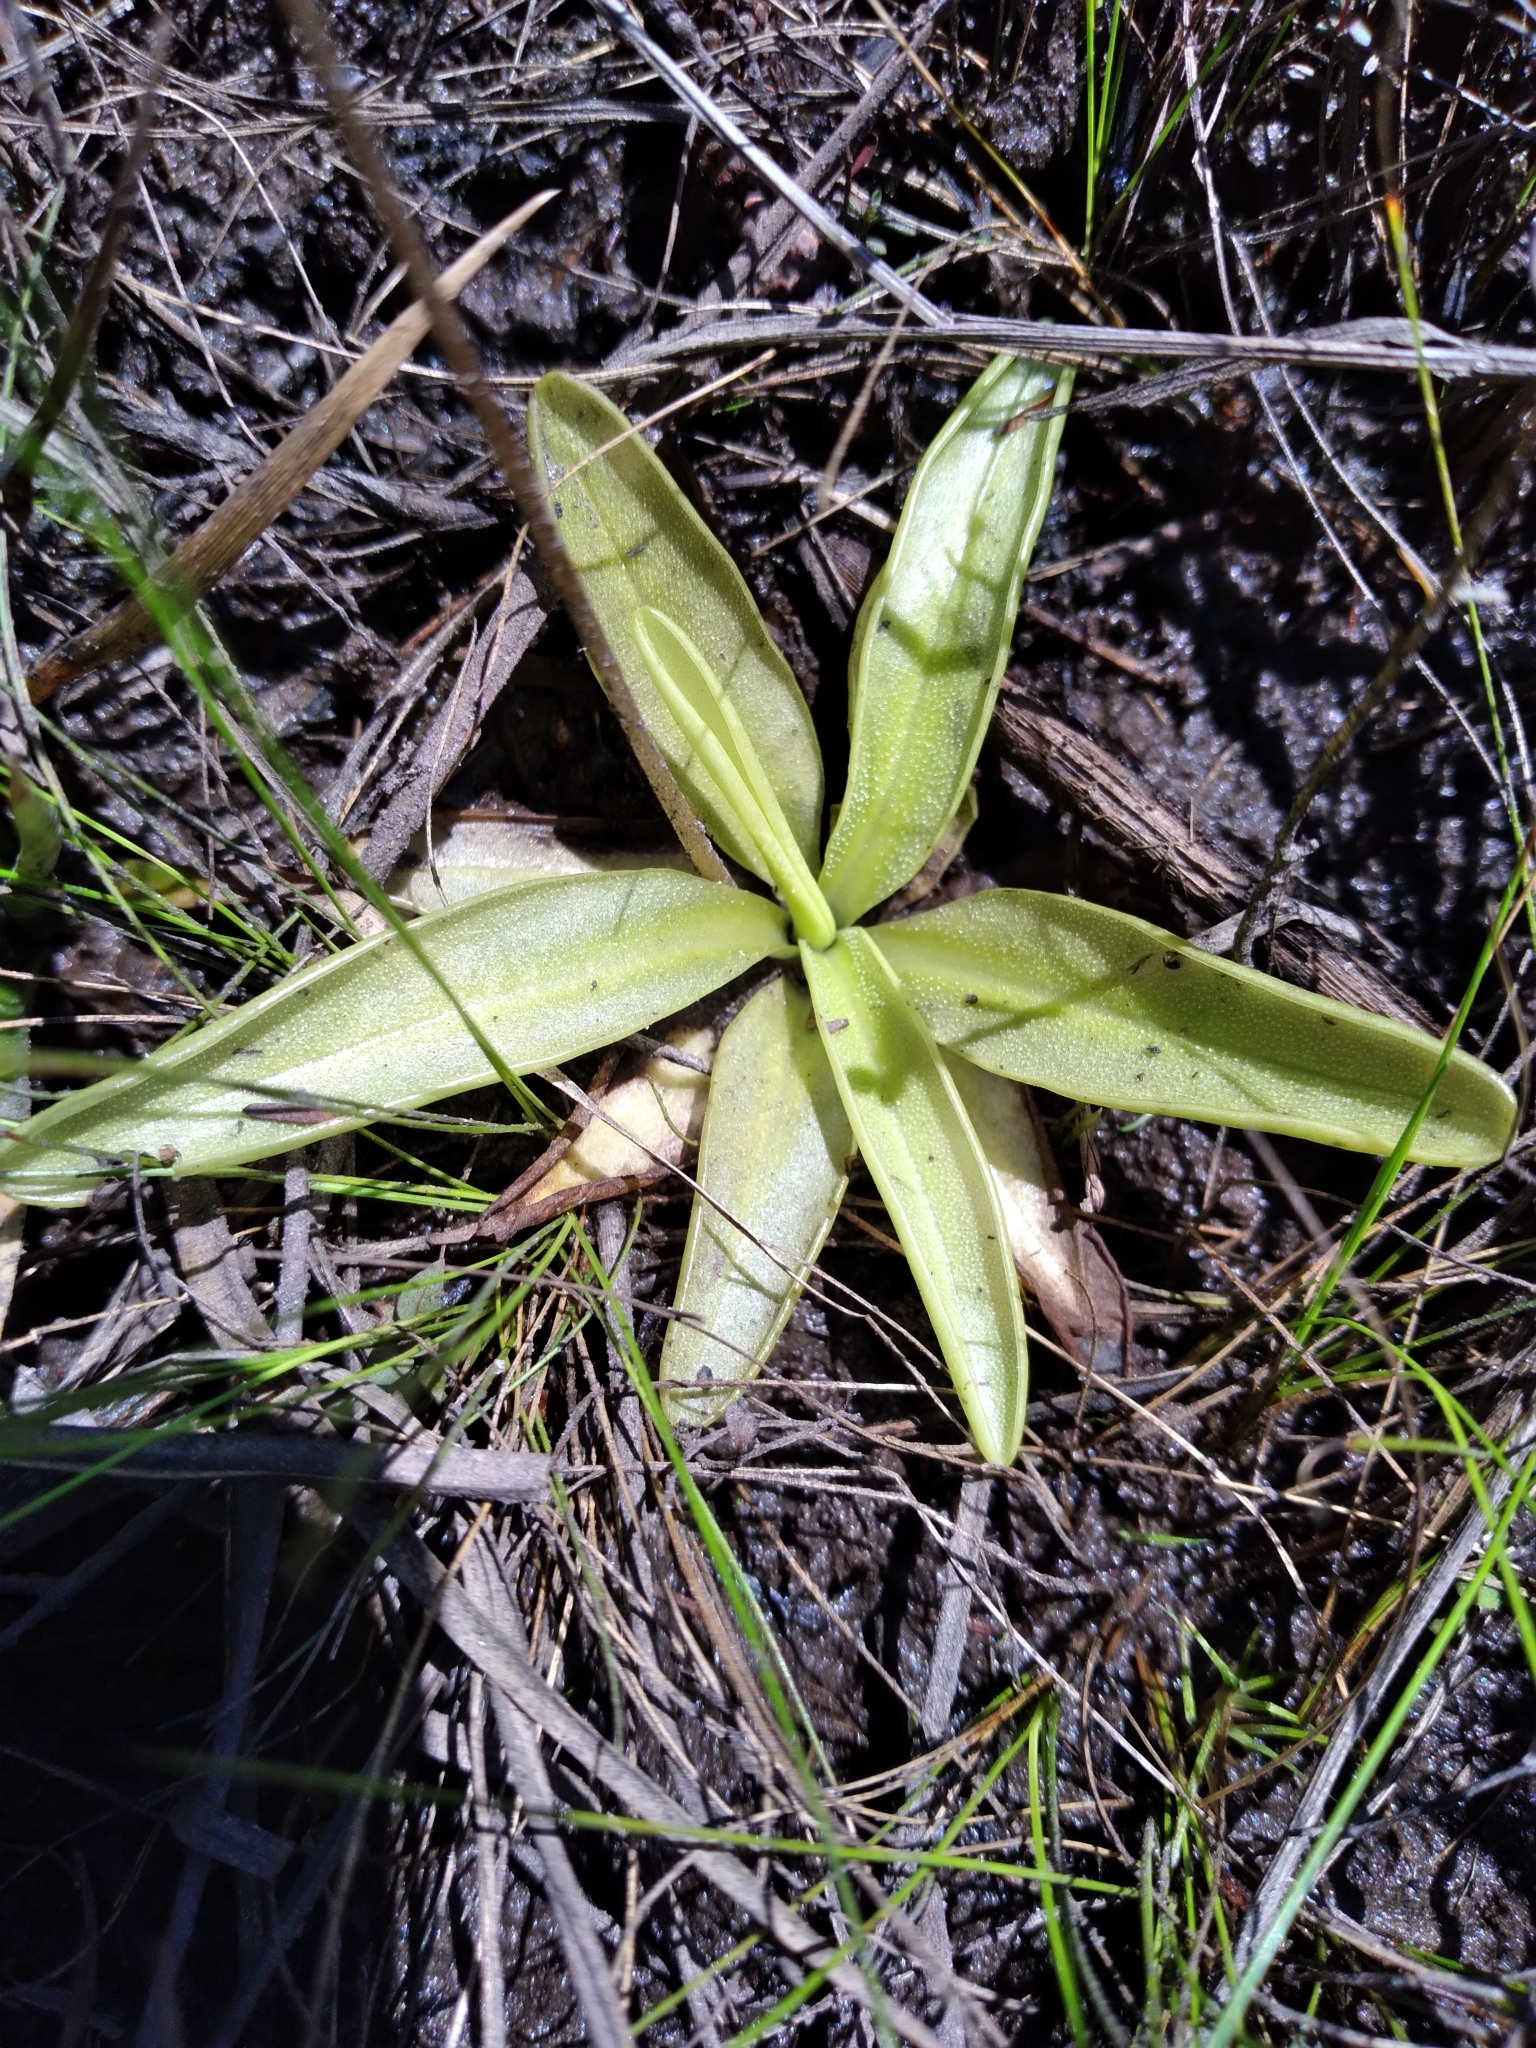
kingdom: Plantae
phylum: Tracheophyta
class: Magnoliopsida
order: Lamiales
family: Lentibulariaceae
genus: Pinguicula
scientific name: Pinguicula ionantha
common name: Godfrey's butterwort
